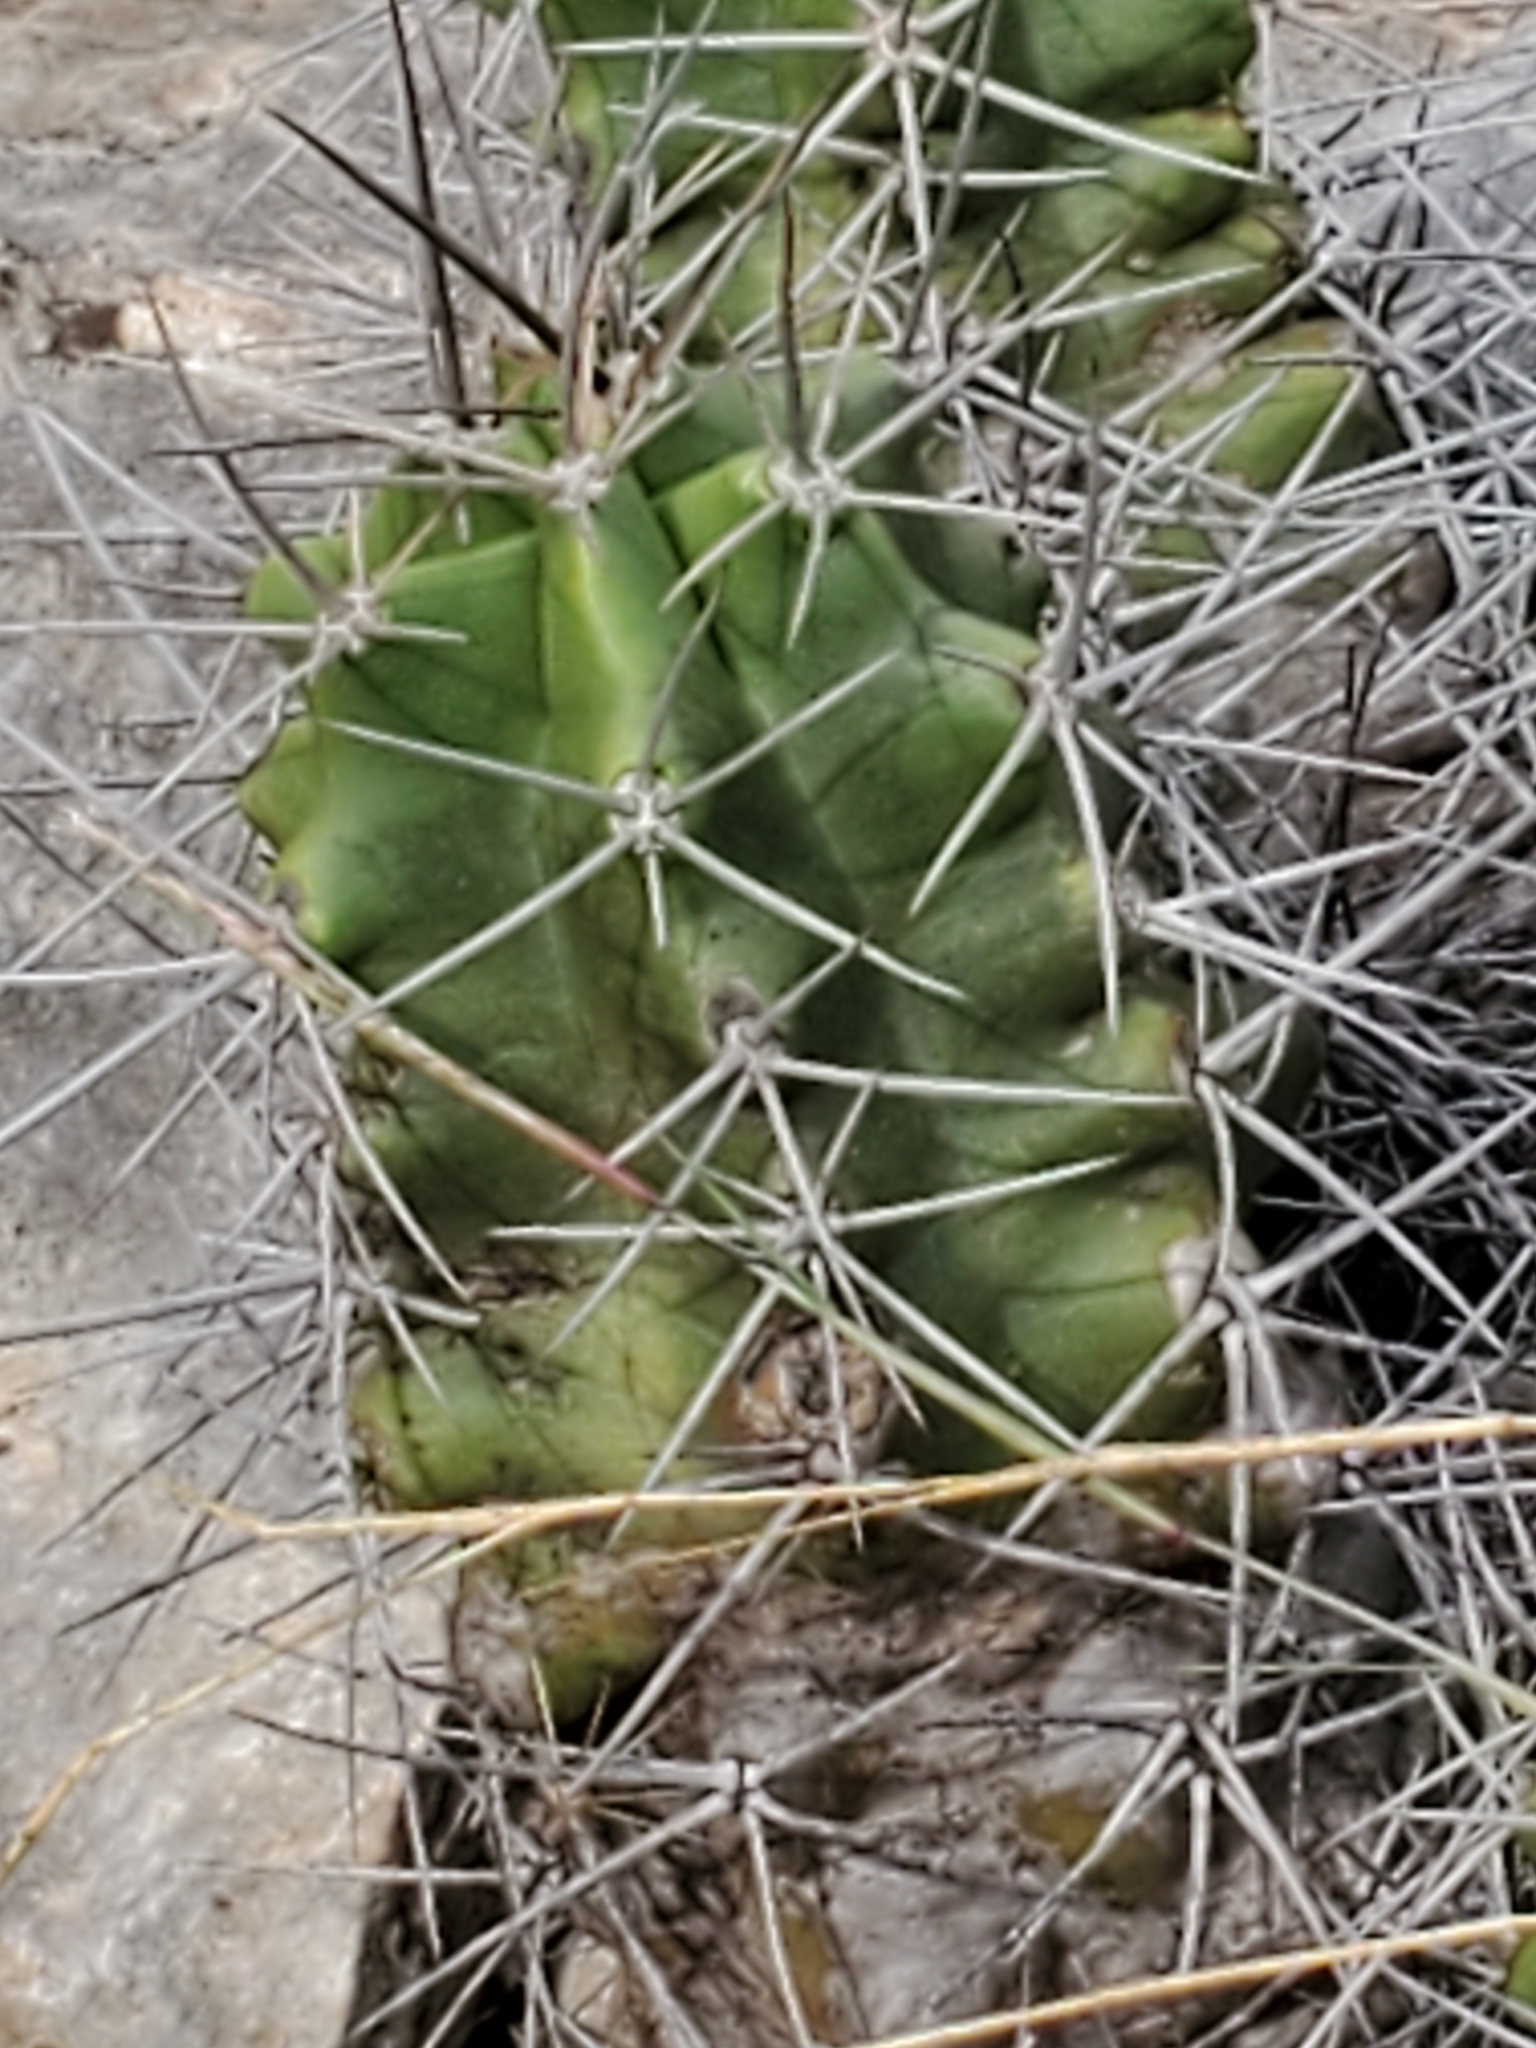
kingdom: Plantae
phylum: Tracheophyta
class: Magnoliopsida
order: Caryophyllales
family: Cactaceae
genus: Echinocereus
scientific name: Echinocereus coccineus
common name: Scarlet hedgehog cactus
